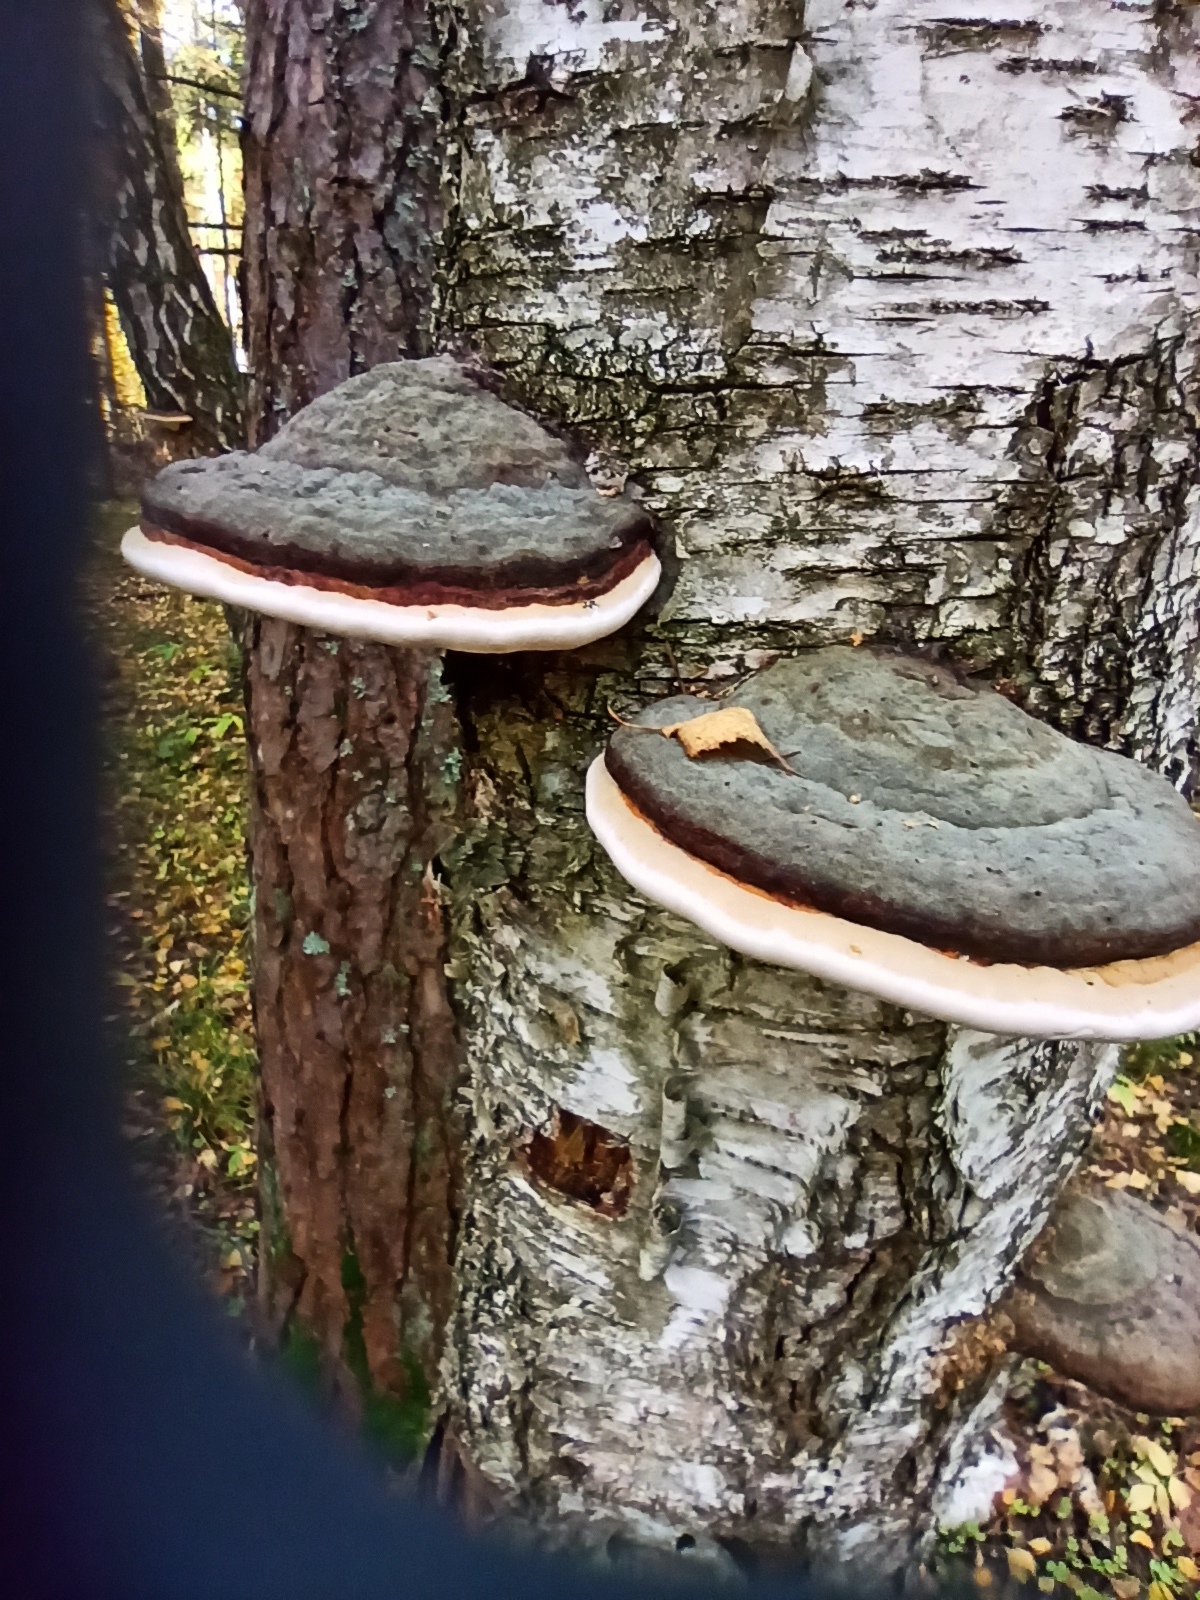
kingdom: Fungi
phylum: Basidiomycota
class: Agaricomycetes
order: Polyporales
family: Fomitopsidaceae
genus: Fomitopsis
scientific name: Fomitopsis pinicola
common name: Red-belted bracket
